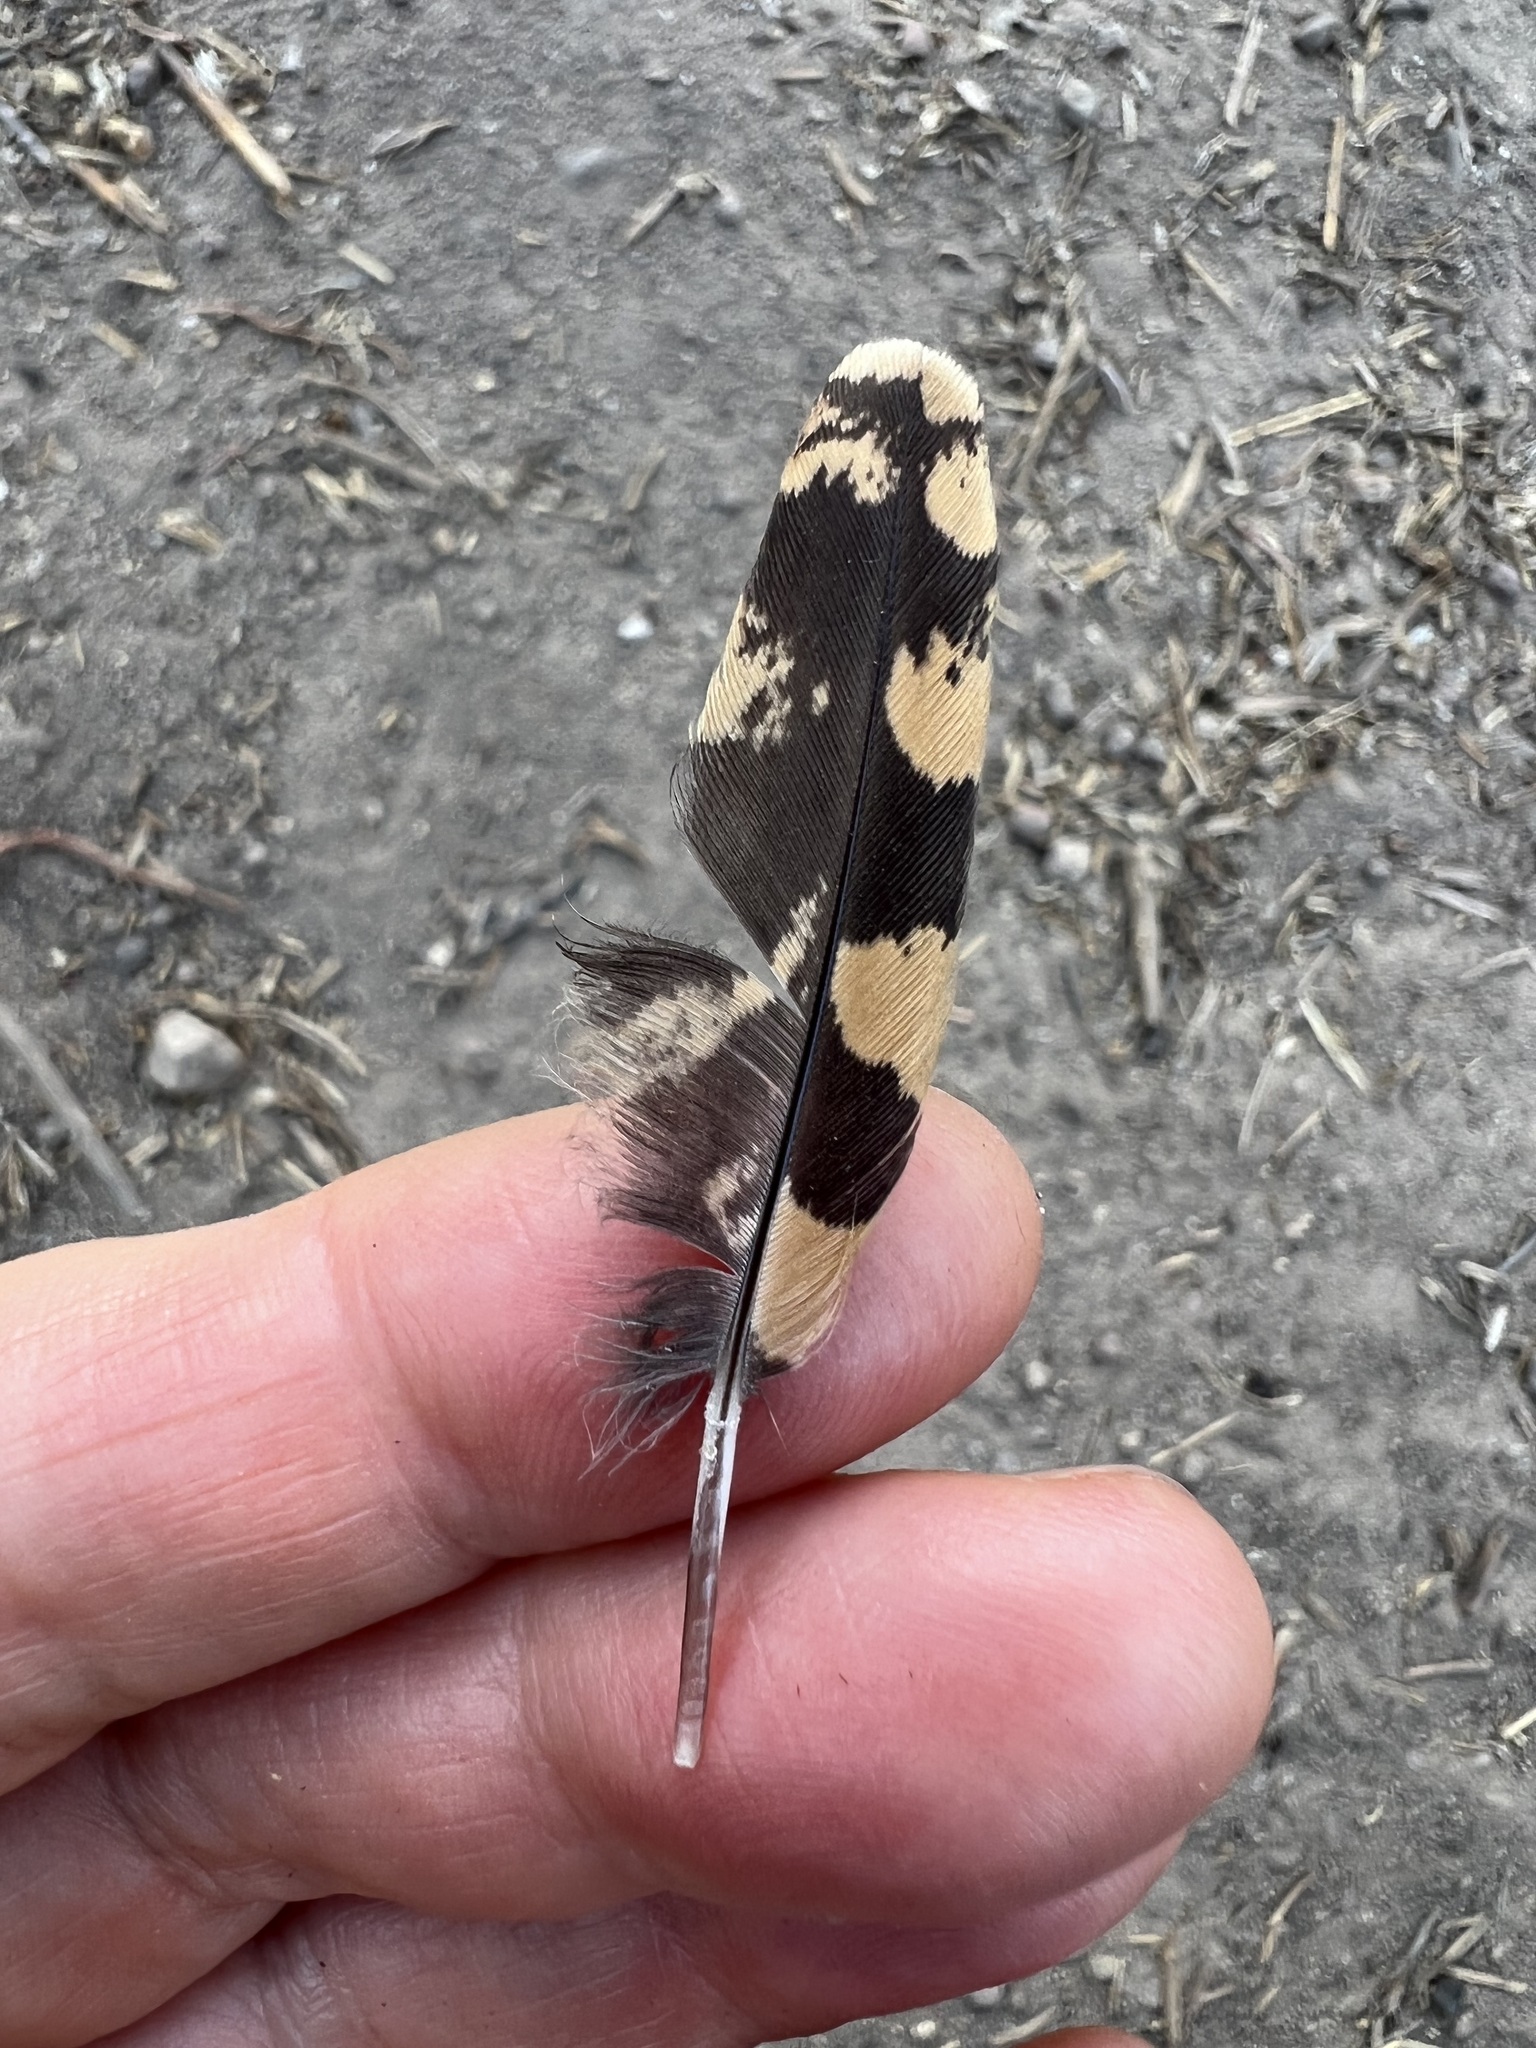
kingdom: Animalia
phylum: Chordata
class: Aves
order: Caprimulgiformes
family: Caprimulgidae
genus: Phalaenoptilus
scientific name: Phalaenoptilus nuttallii
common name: Common poorwill
